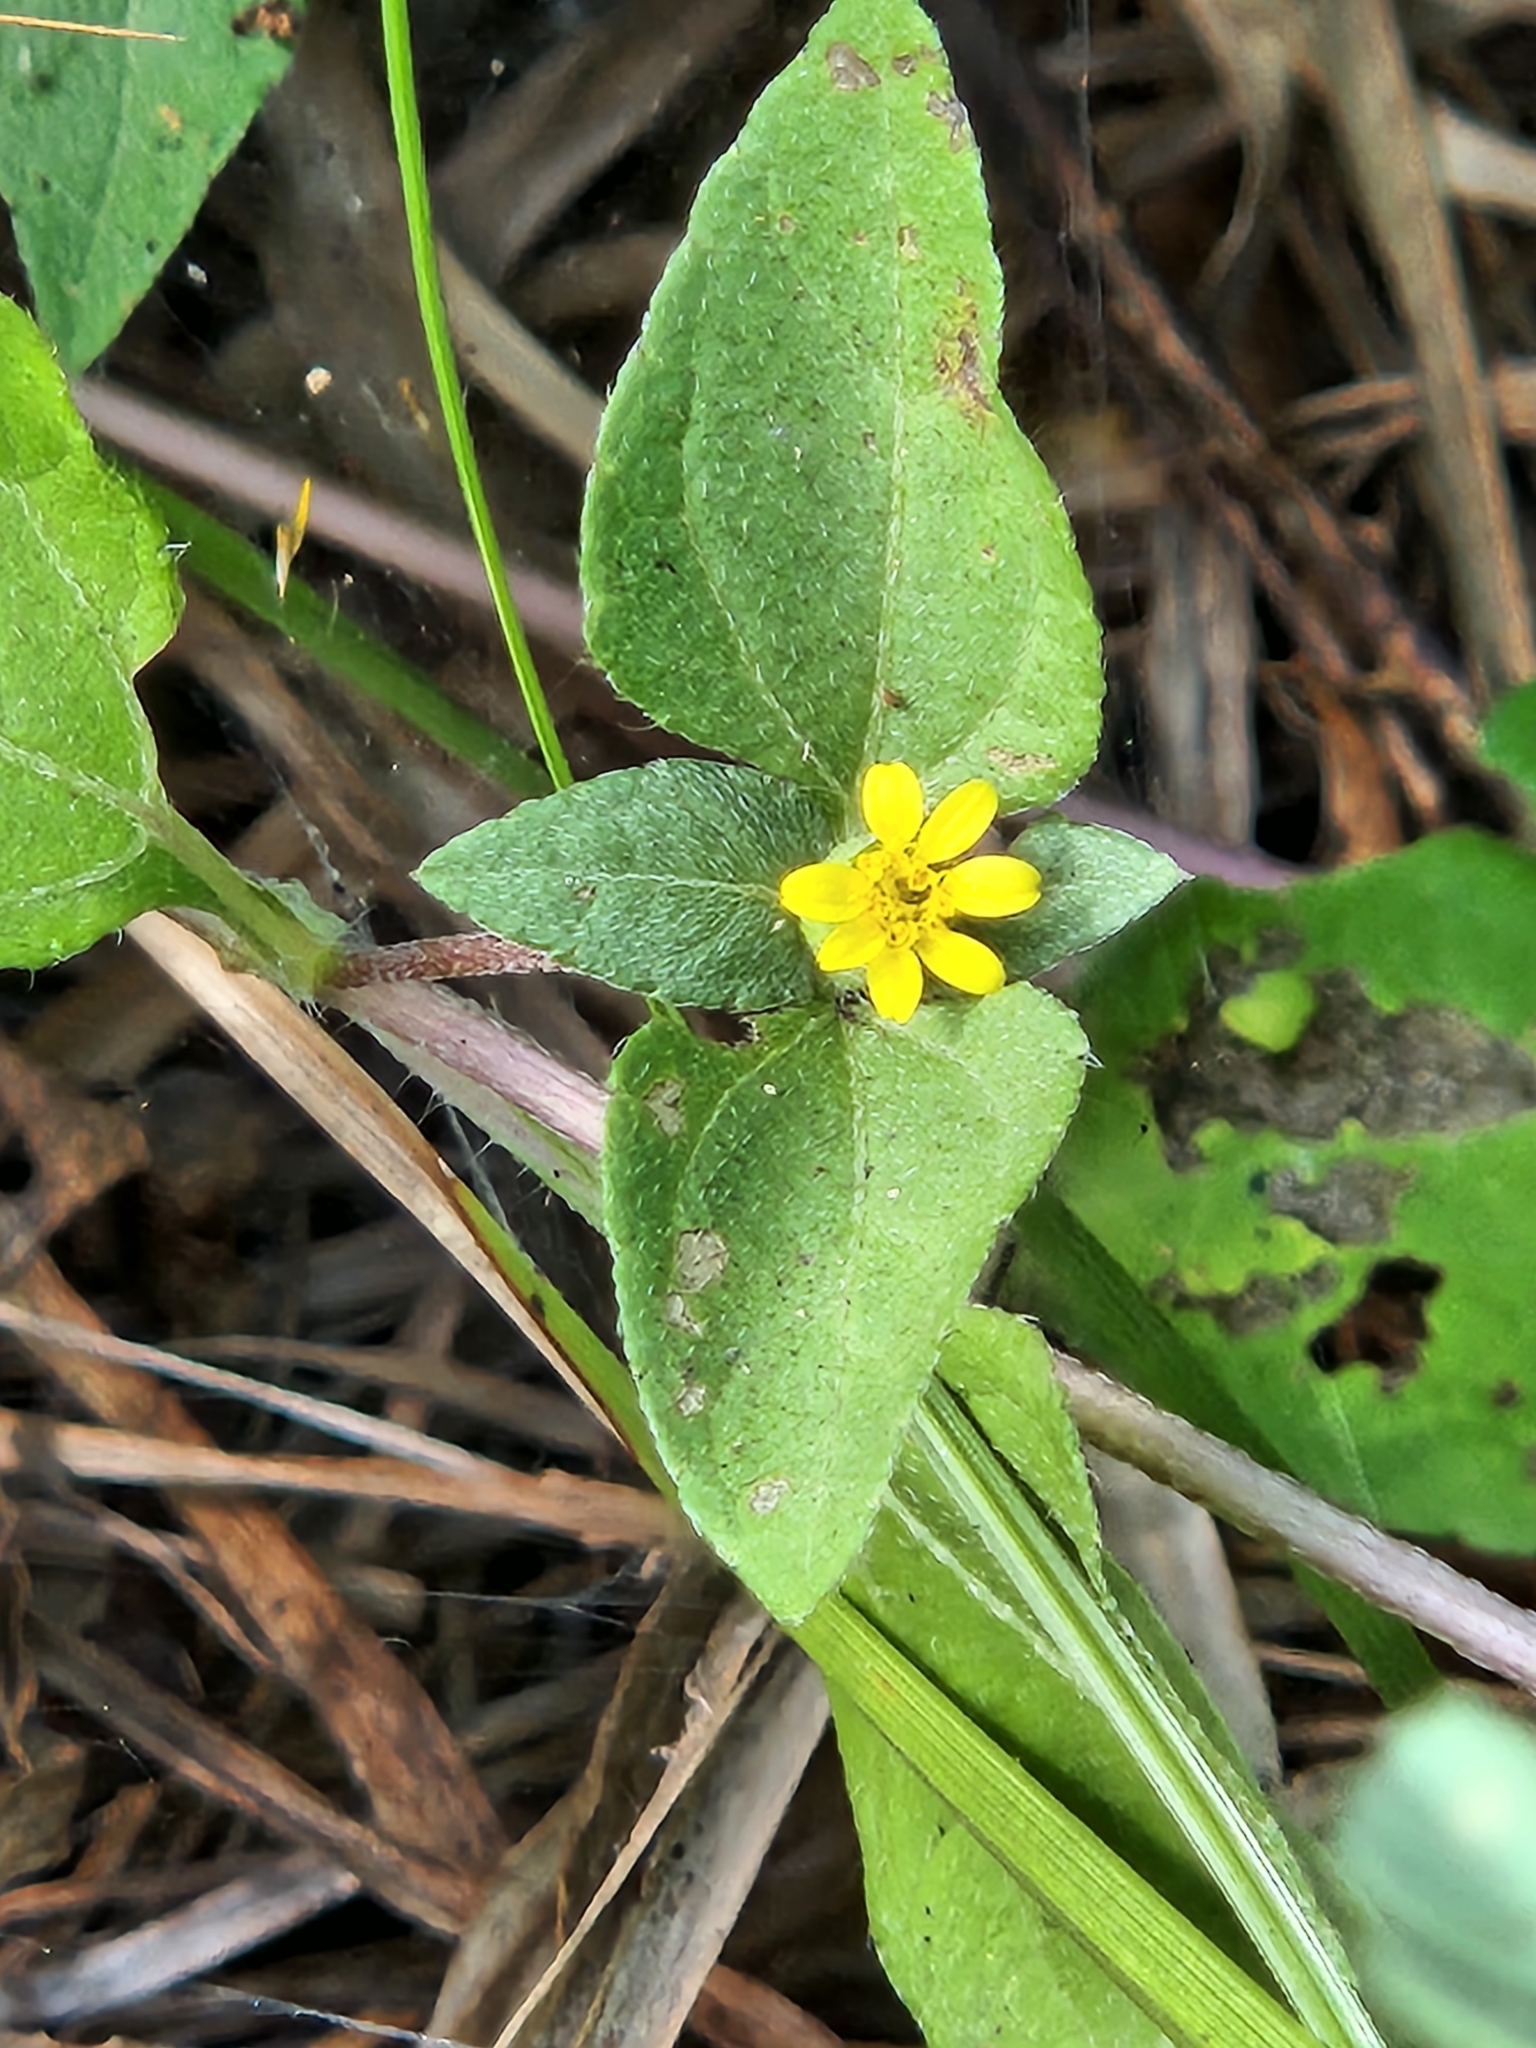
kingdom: Plantae
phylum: Tracheophyta
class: Magnoliopsida
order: Asterales
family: Asteraceae
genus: Calyptocarpus
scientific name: Calyptocarpus vialis
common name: Straggler daisy
